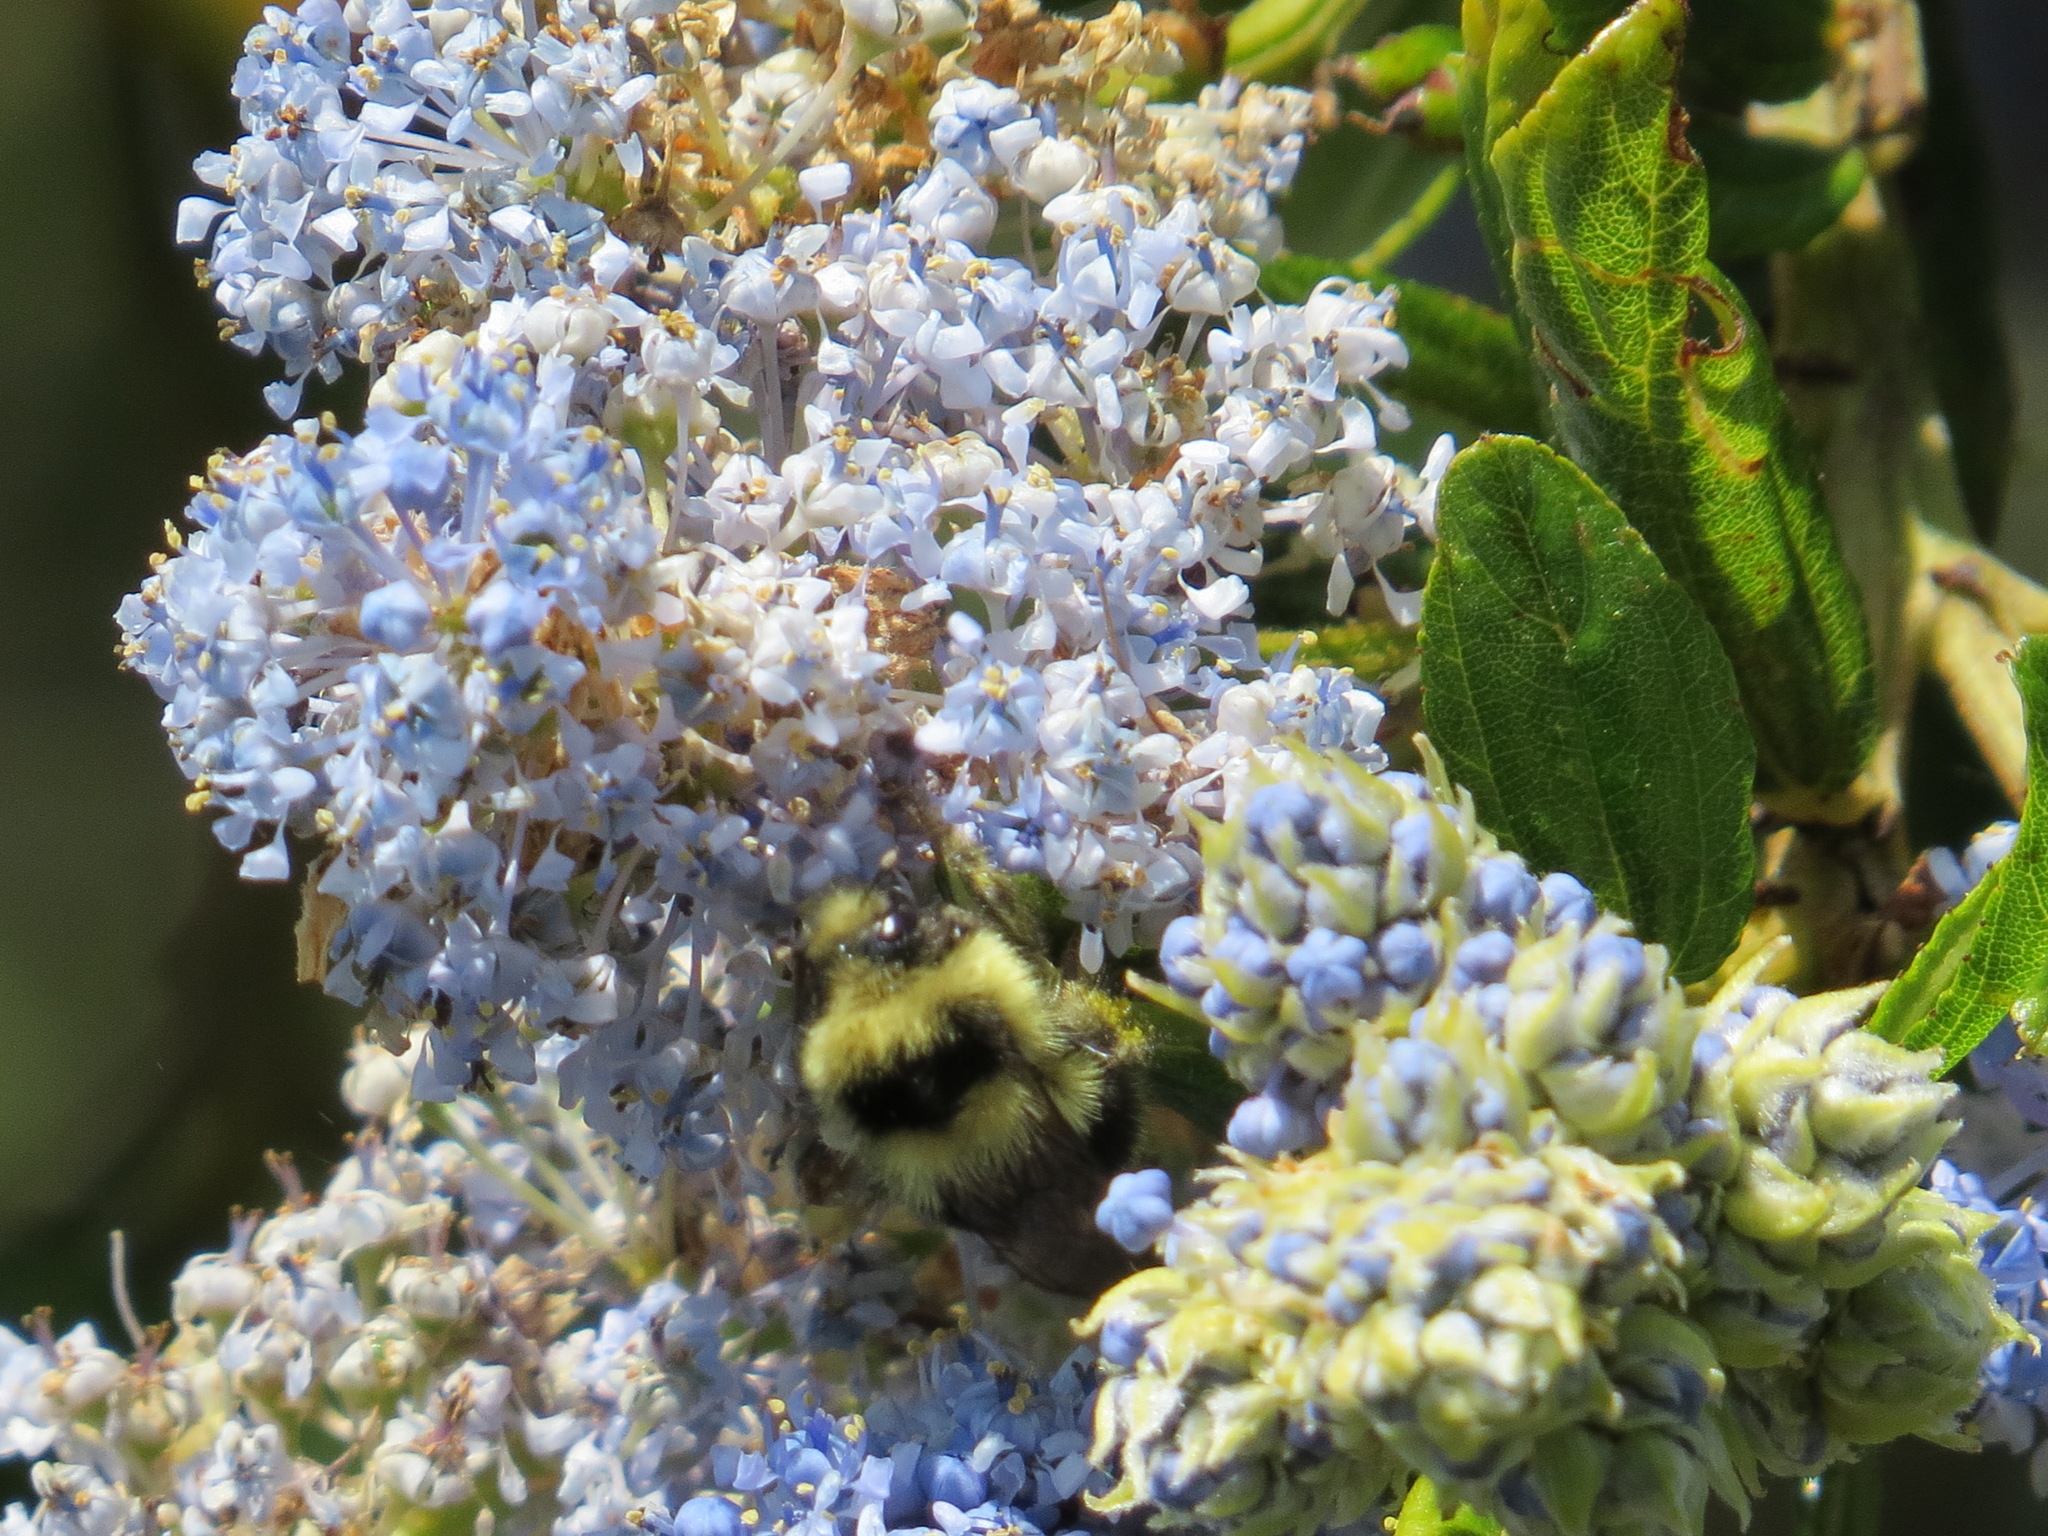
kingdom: Animalia
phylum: Arthropoda
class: Insecta
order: Hymenoptera
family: Apidae
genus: Bombus
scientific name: Bombus melanopygus
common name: Black tail bumble bee
